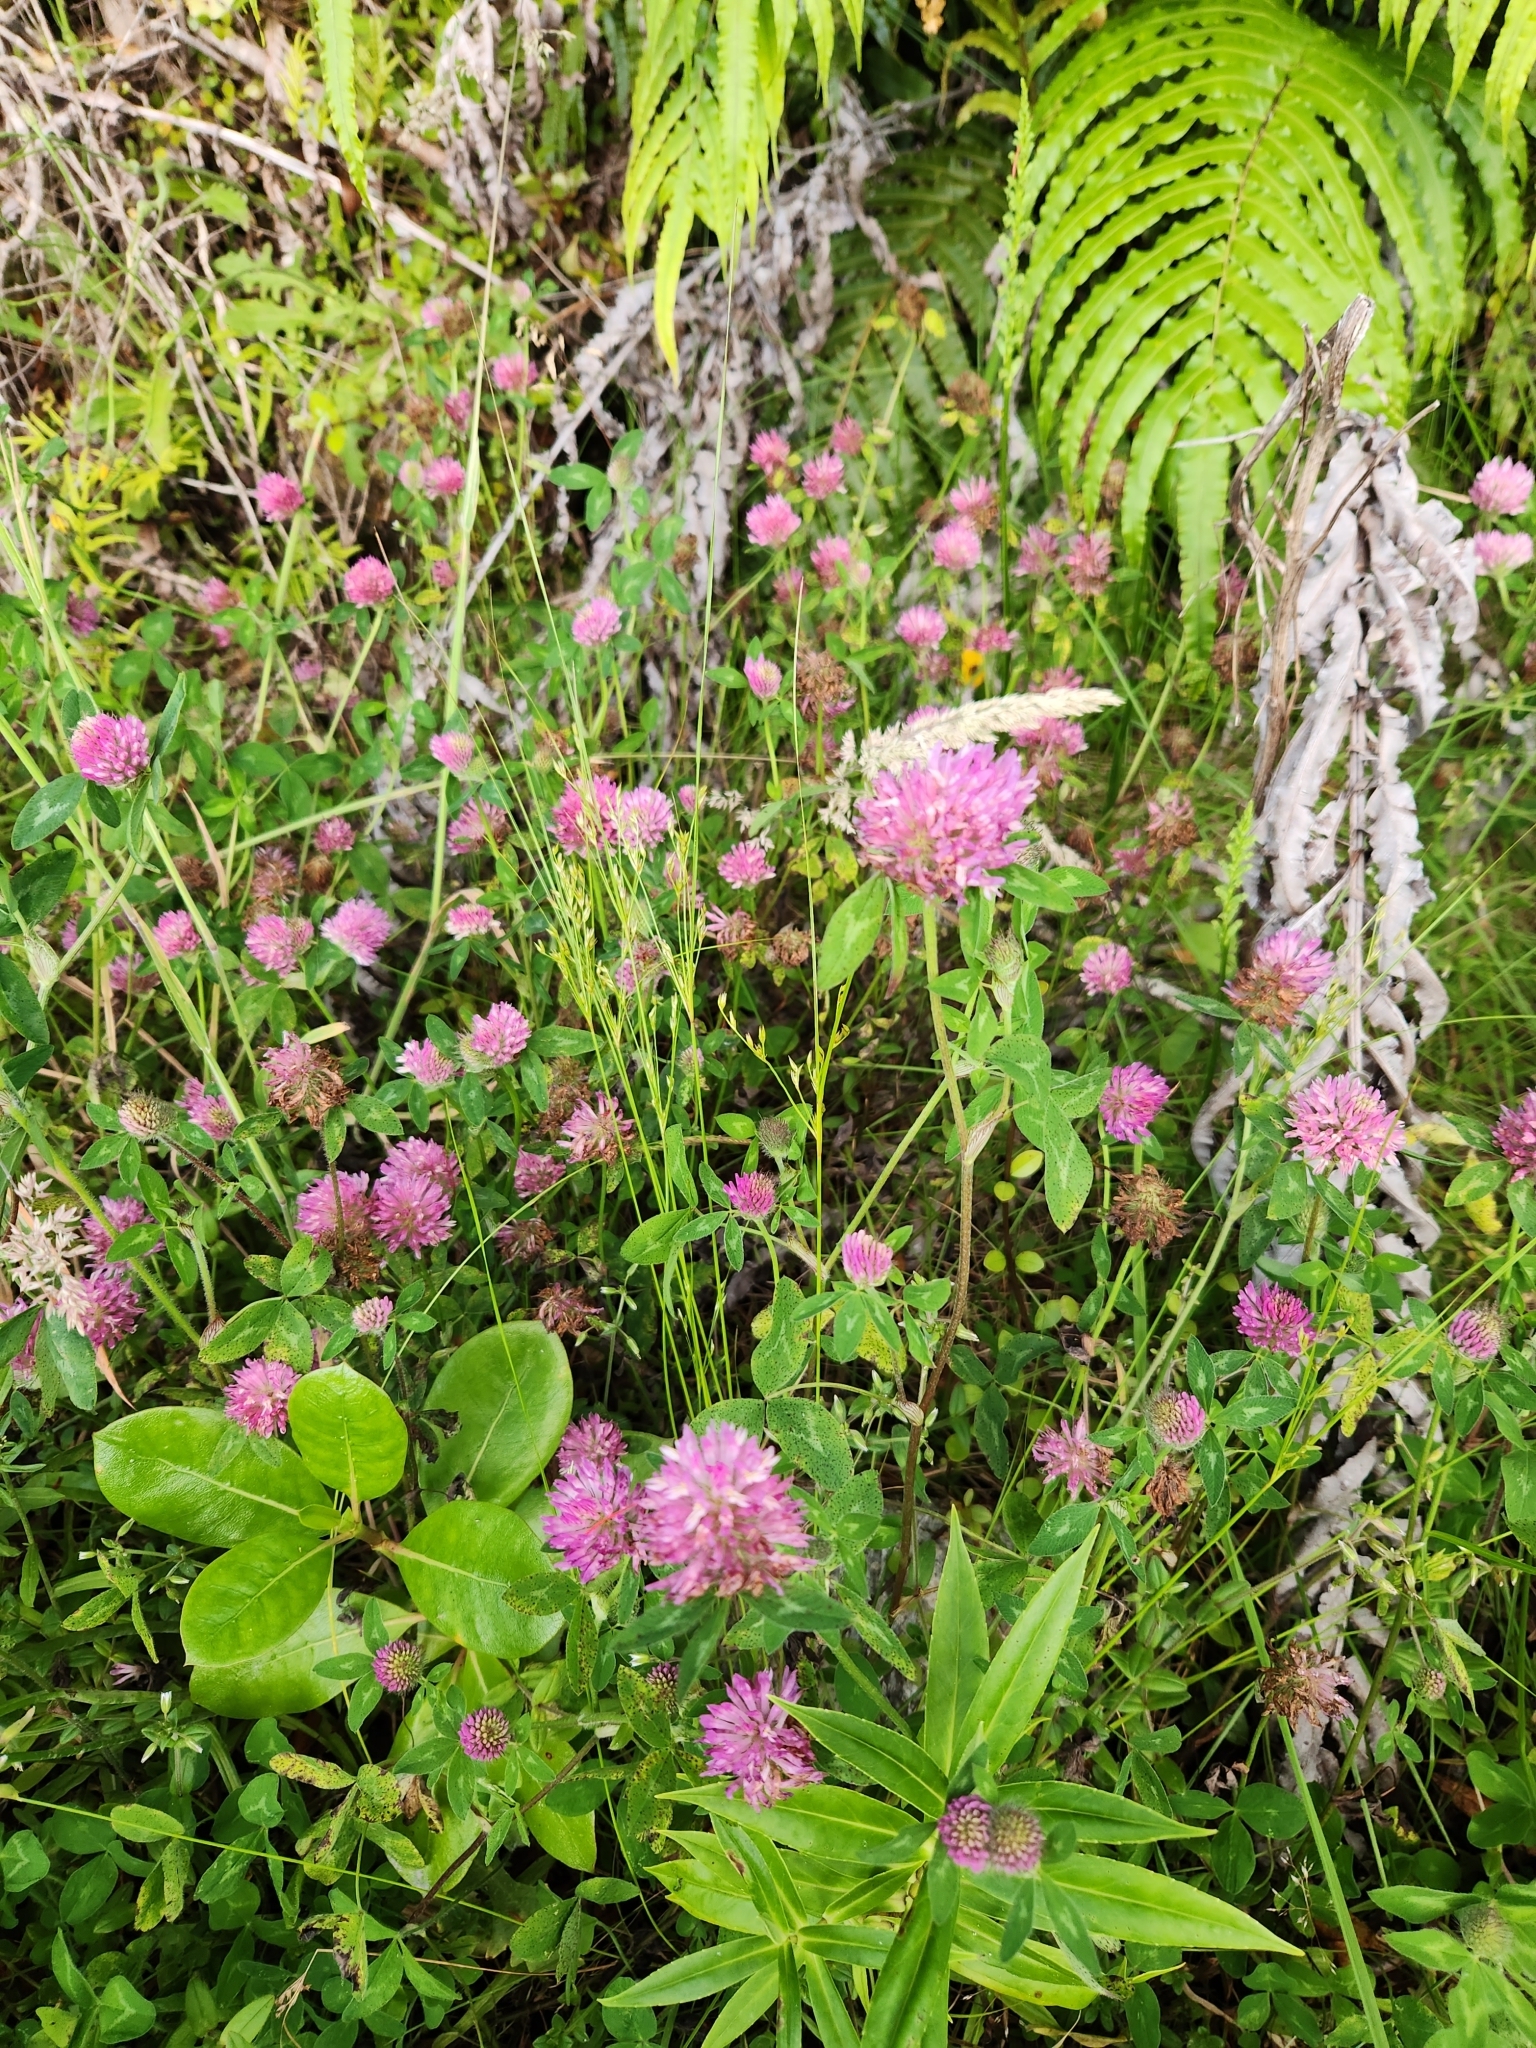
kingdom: Plantae
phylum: Tracheophyta
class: Magnoliopsida
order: Fabales
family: Fabaceae
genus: Trifolium
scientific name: Trifolium pratense
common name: Red clover
